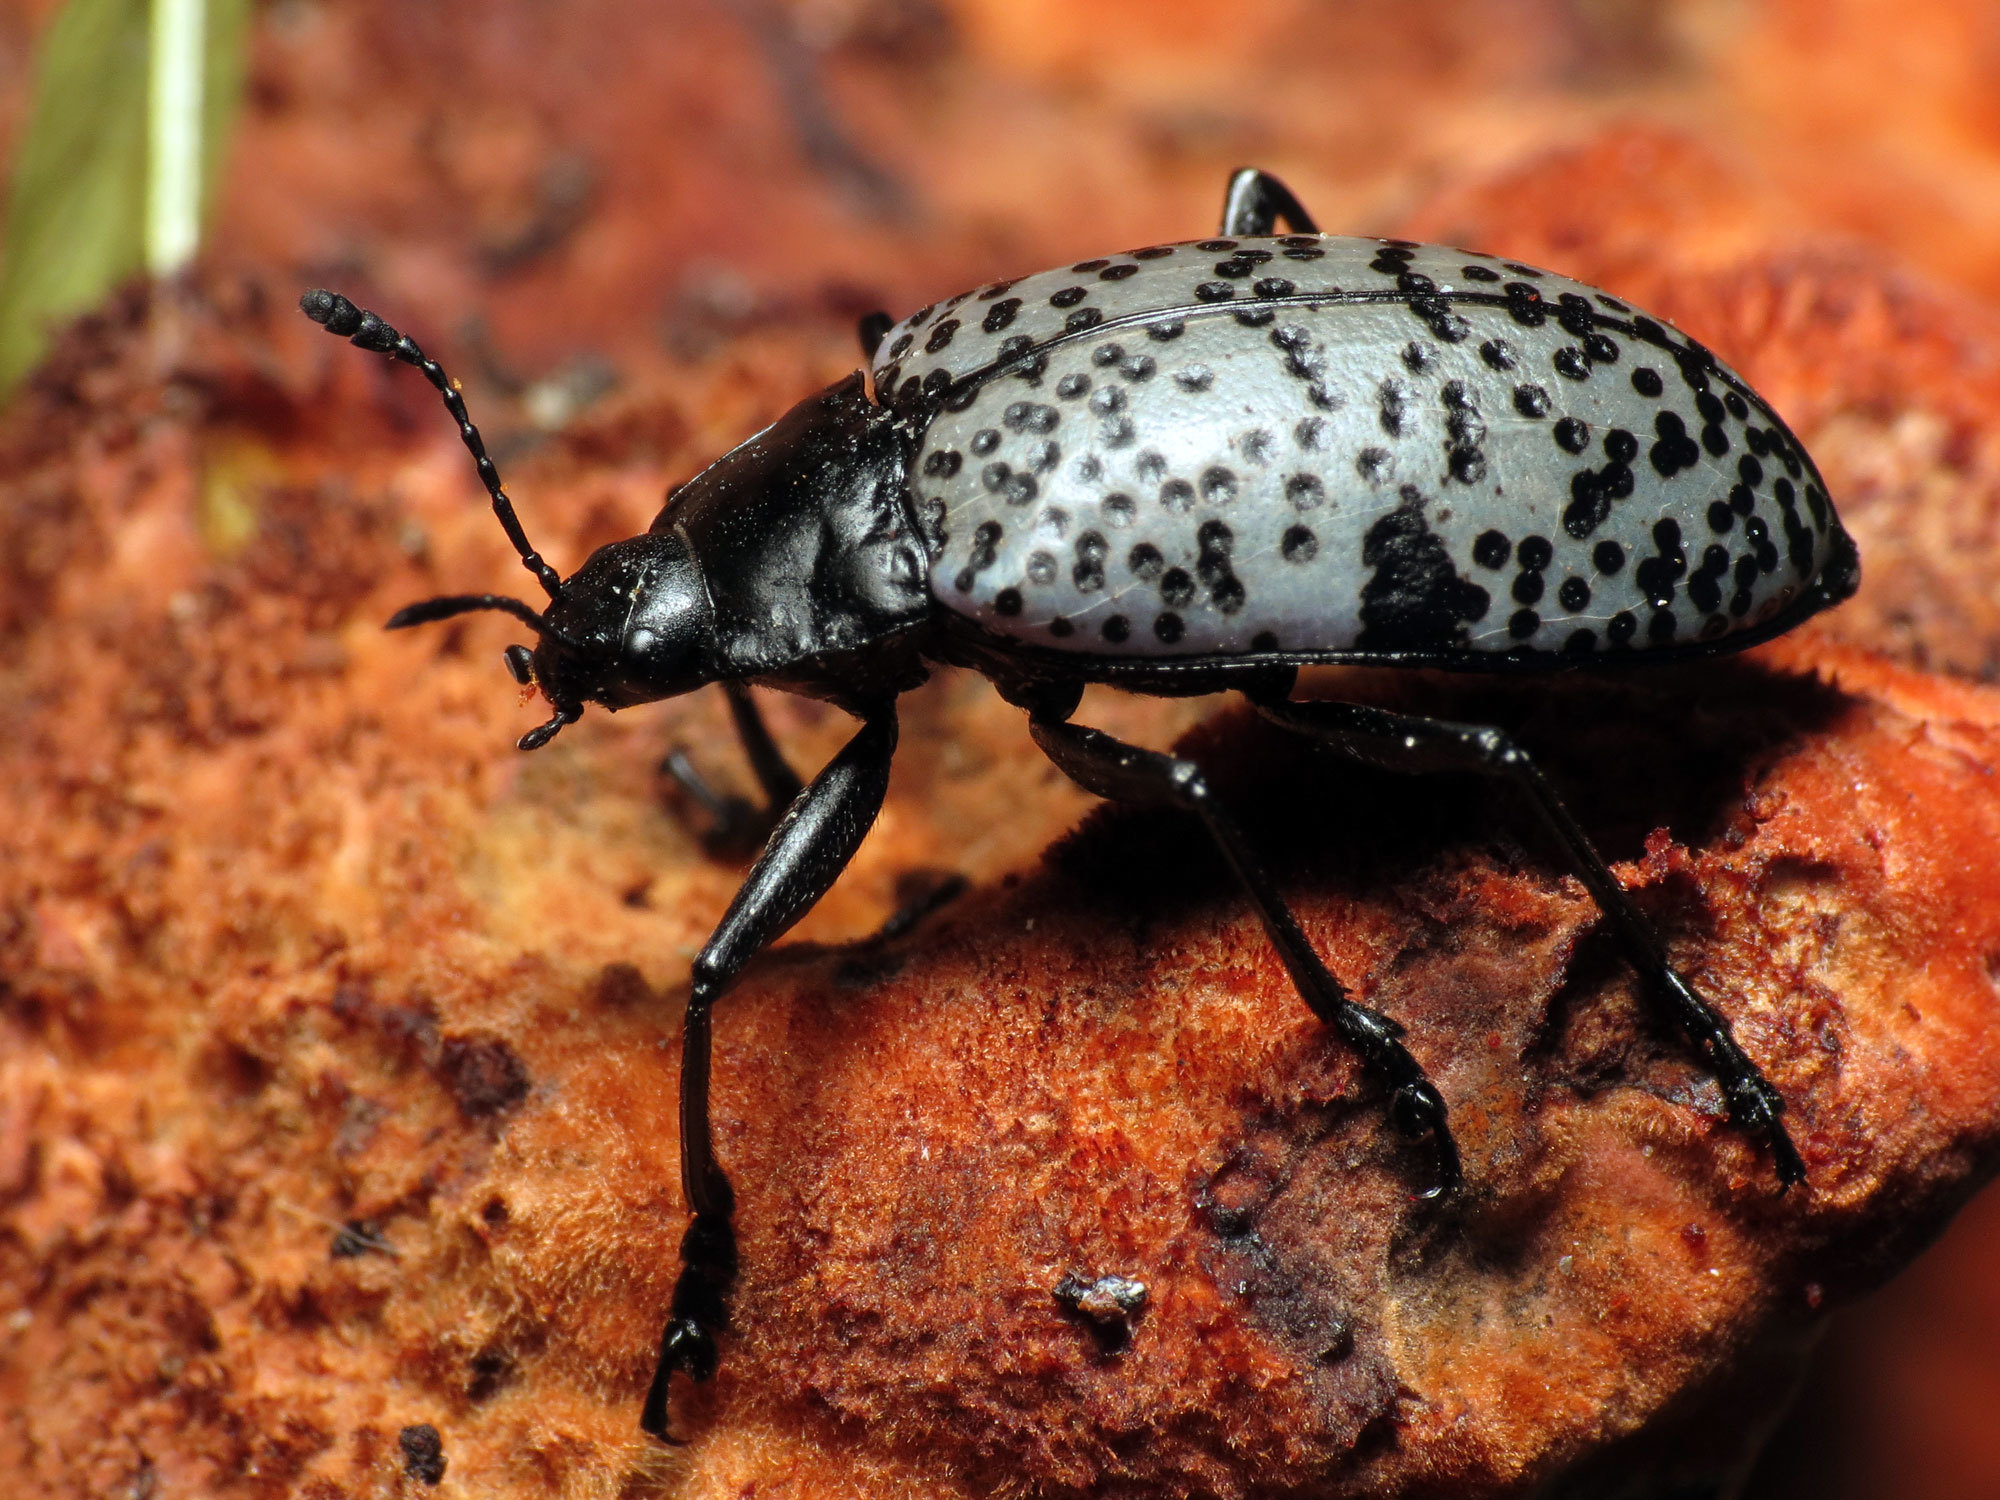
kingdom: Animalia
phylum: Arthropoda
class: Insecta
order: Coleoptera
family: Erotylidae
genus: Gibbifer
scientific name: Gibbifer californicus
